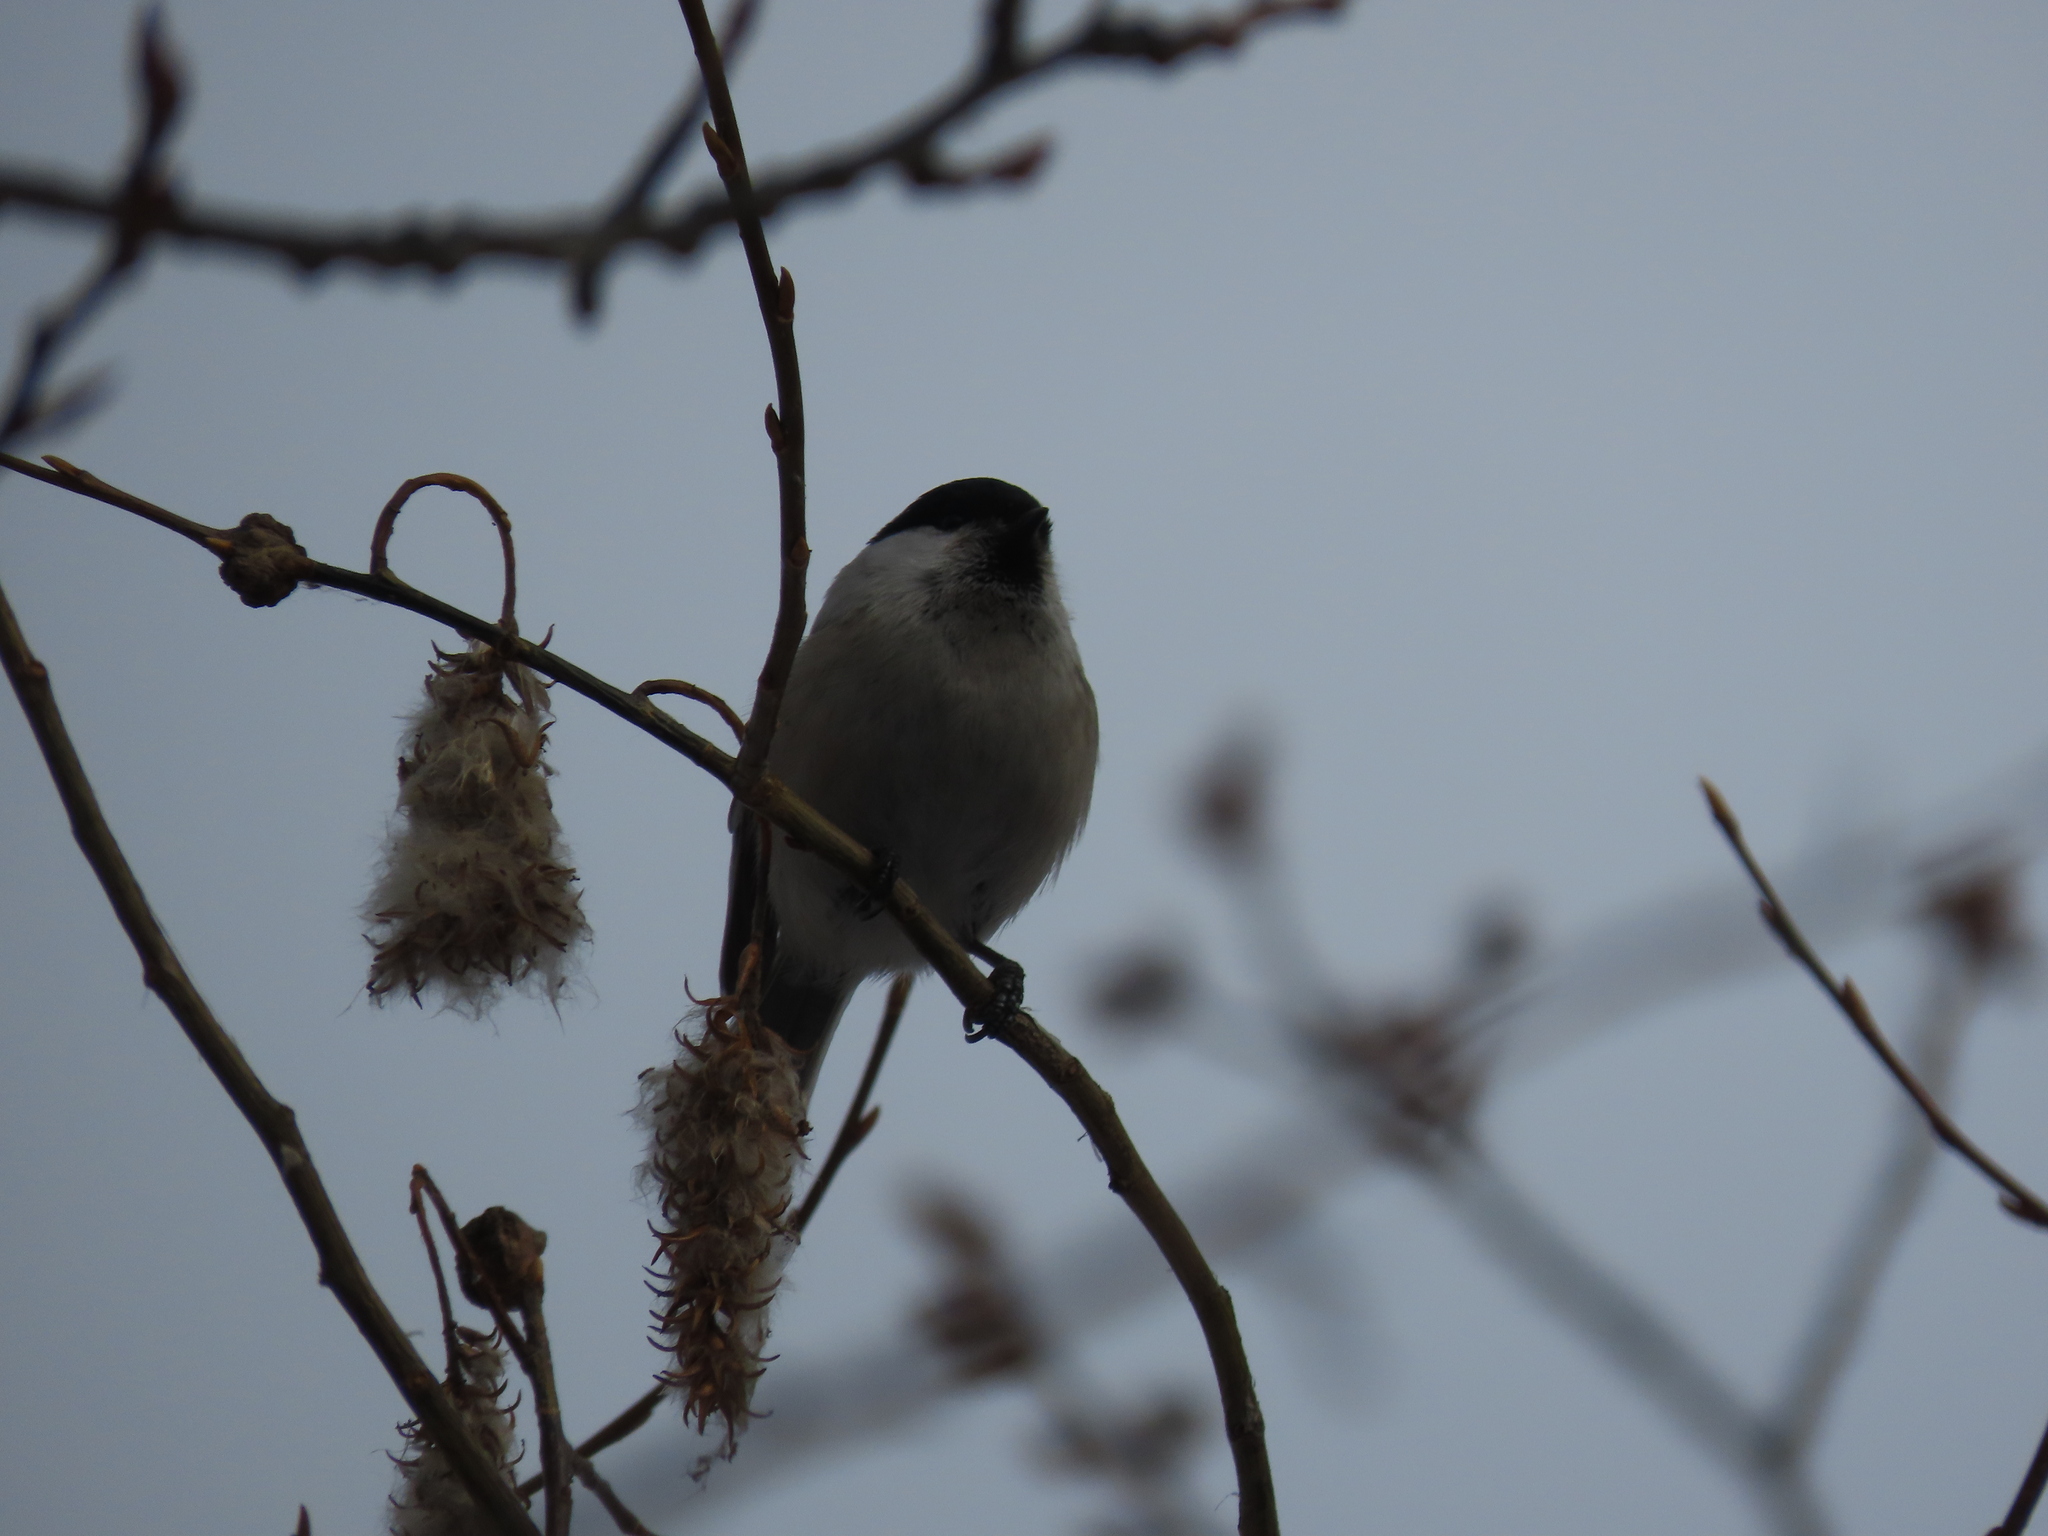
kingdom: Animalia
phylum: Chordata
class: Aves
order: Passeriformes
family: Paridae
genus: Poecile
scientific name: Poecile montanus
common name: Willow tit
